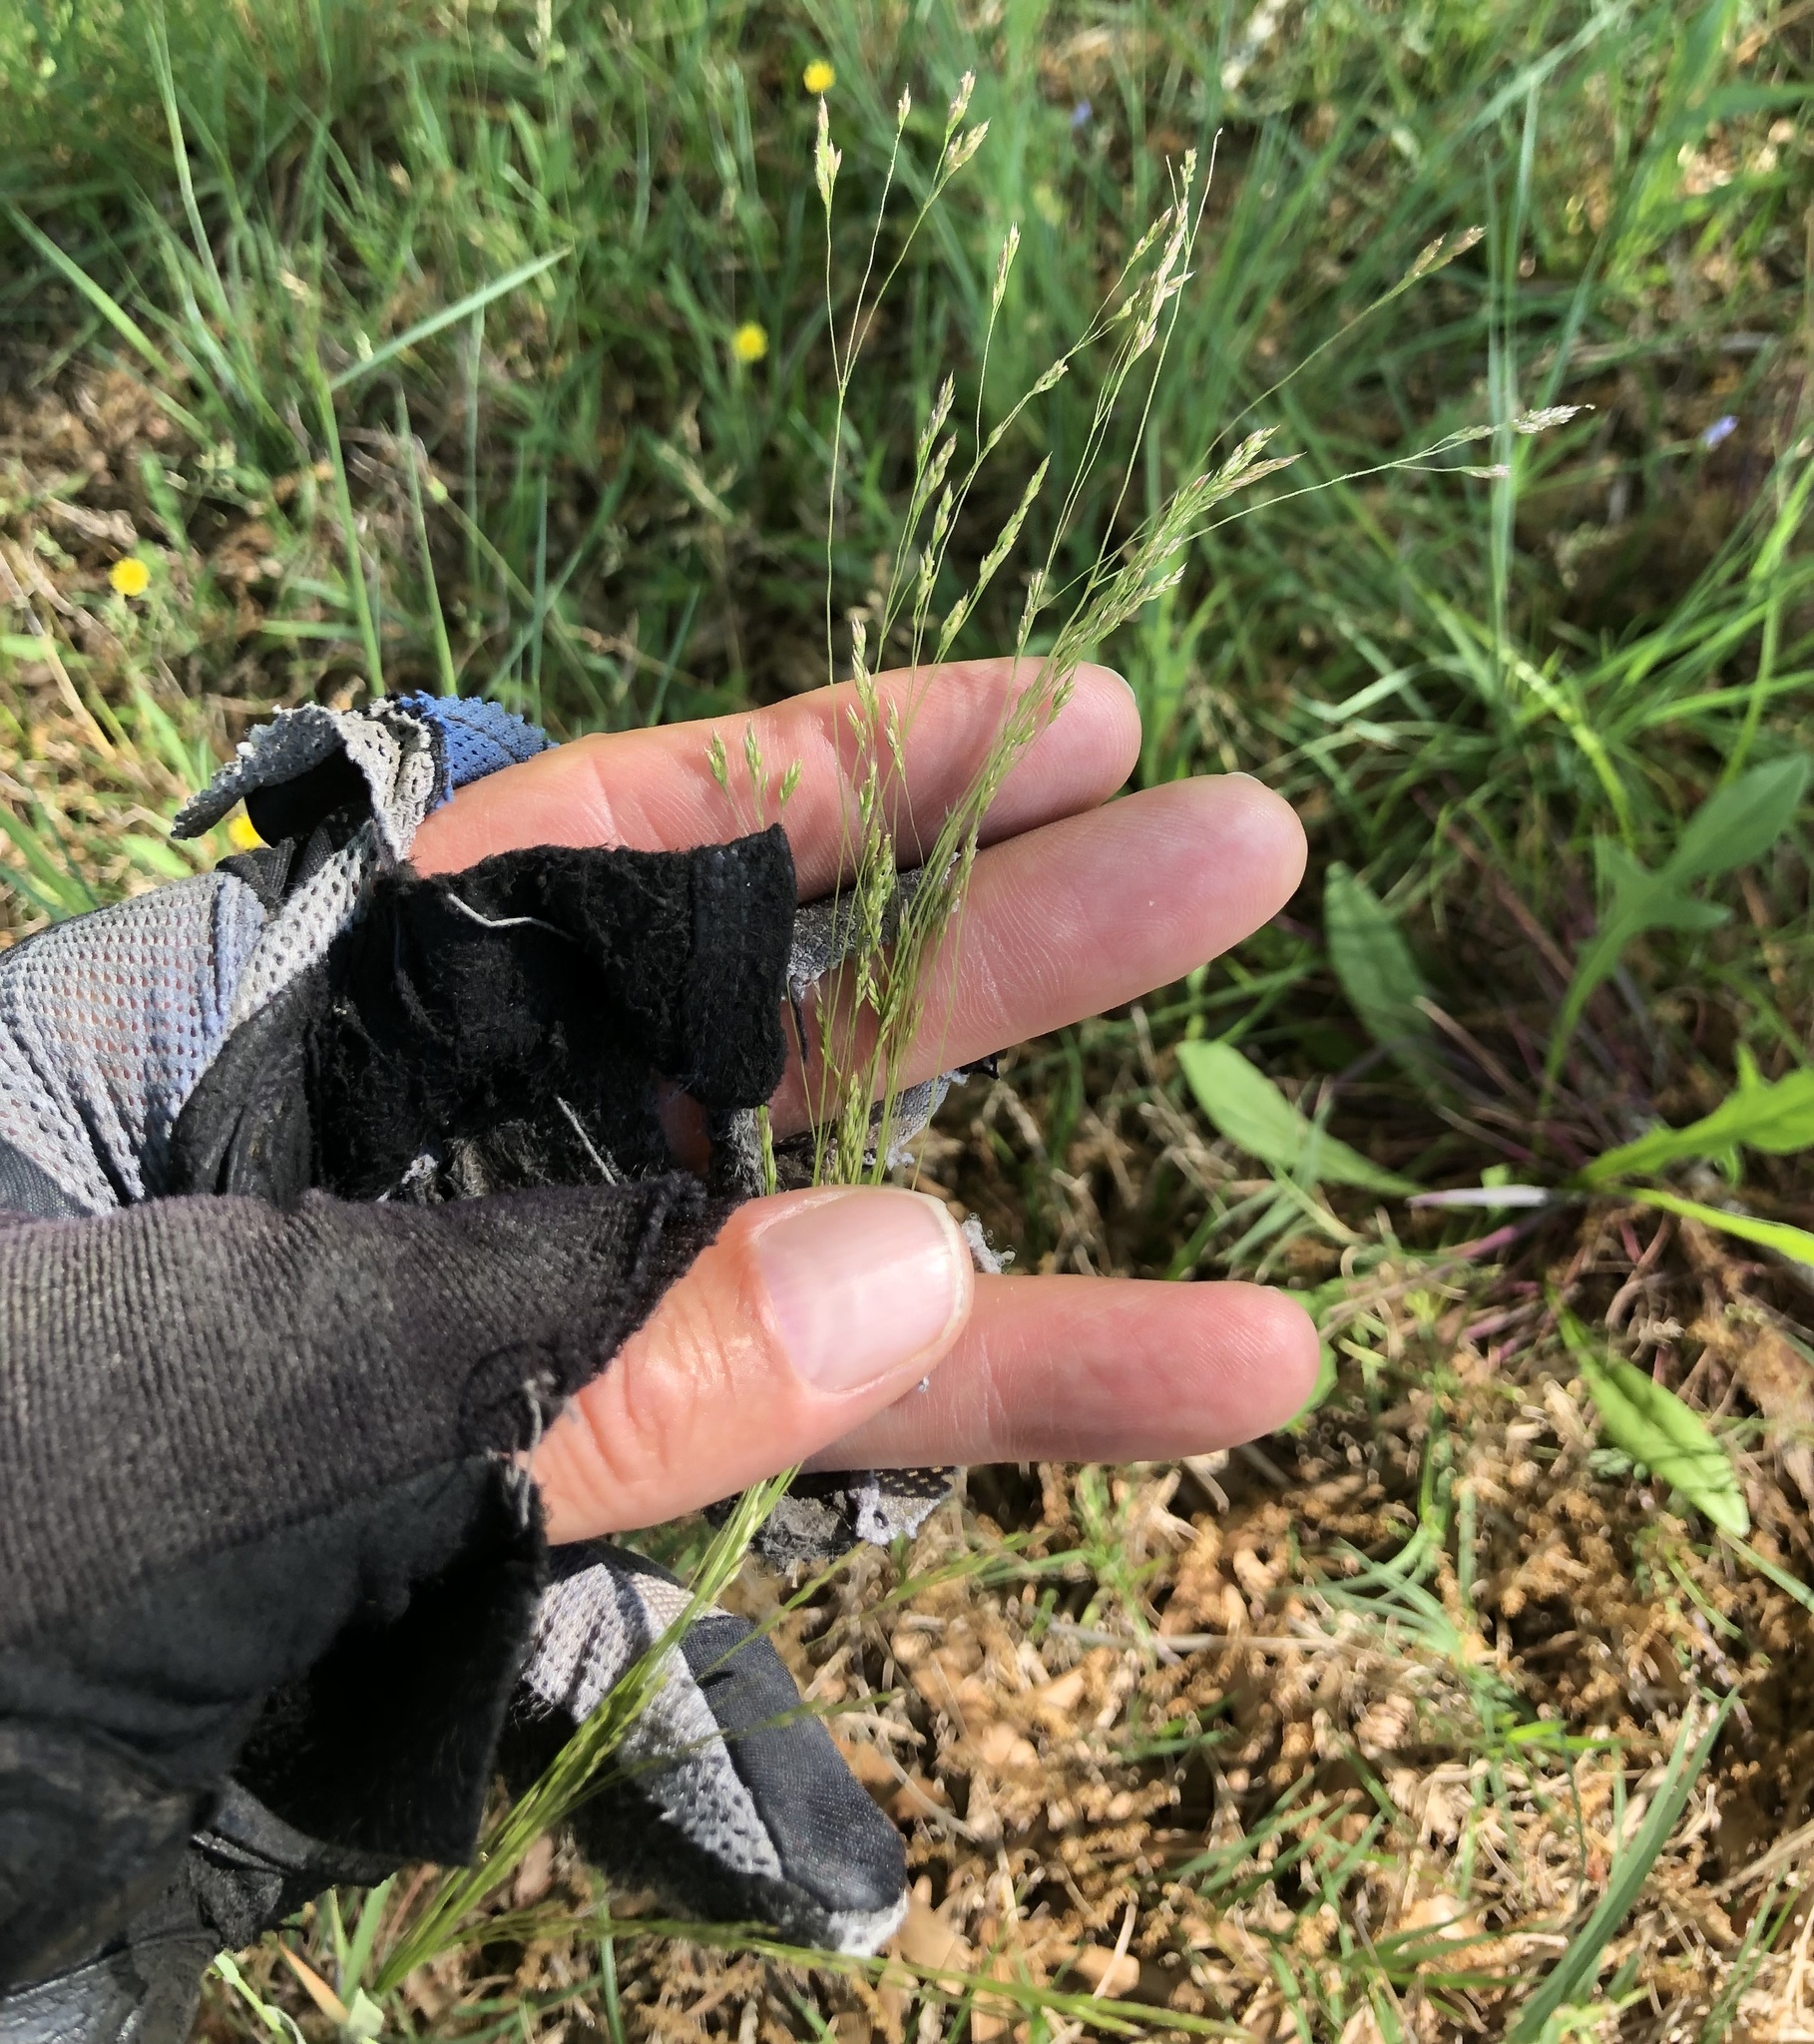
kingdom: Plantae
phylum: Tracheophyta
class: Liliopsida
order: Poales
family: Poaceae
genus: Agrostis
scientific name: Agrostis hyemalis
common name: Small bent
